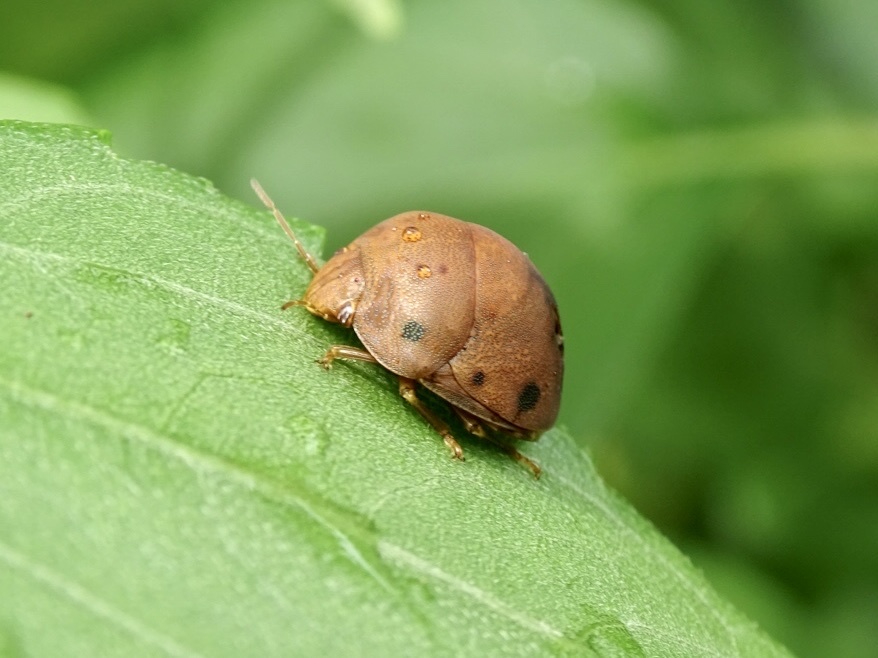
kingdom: Animalia
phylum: Arthropoda
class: Insecta
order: Hemiptera
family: Scutelleridae
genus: Hyperoncus
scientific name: Hyperoncus lateritius
